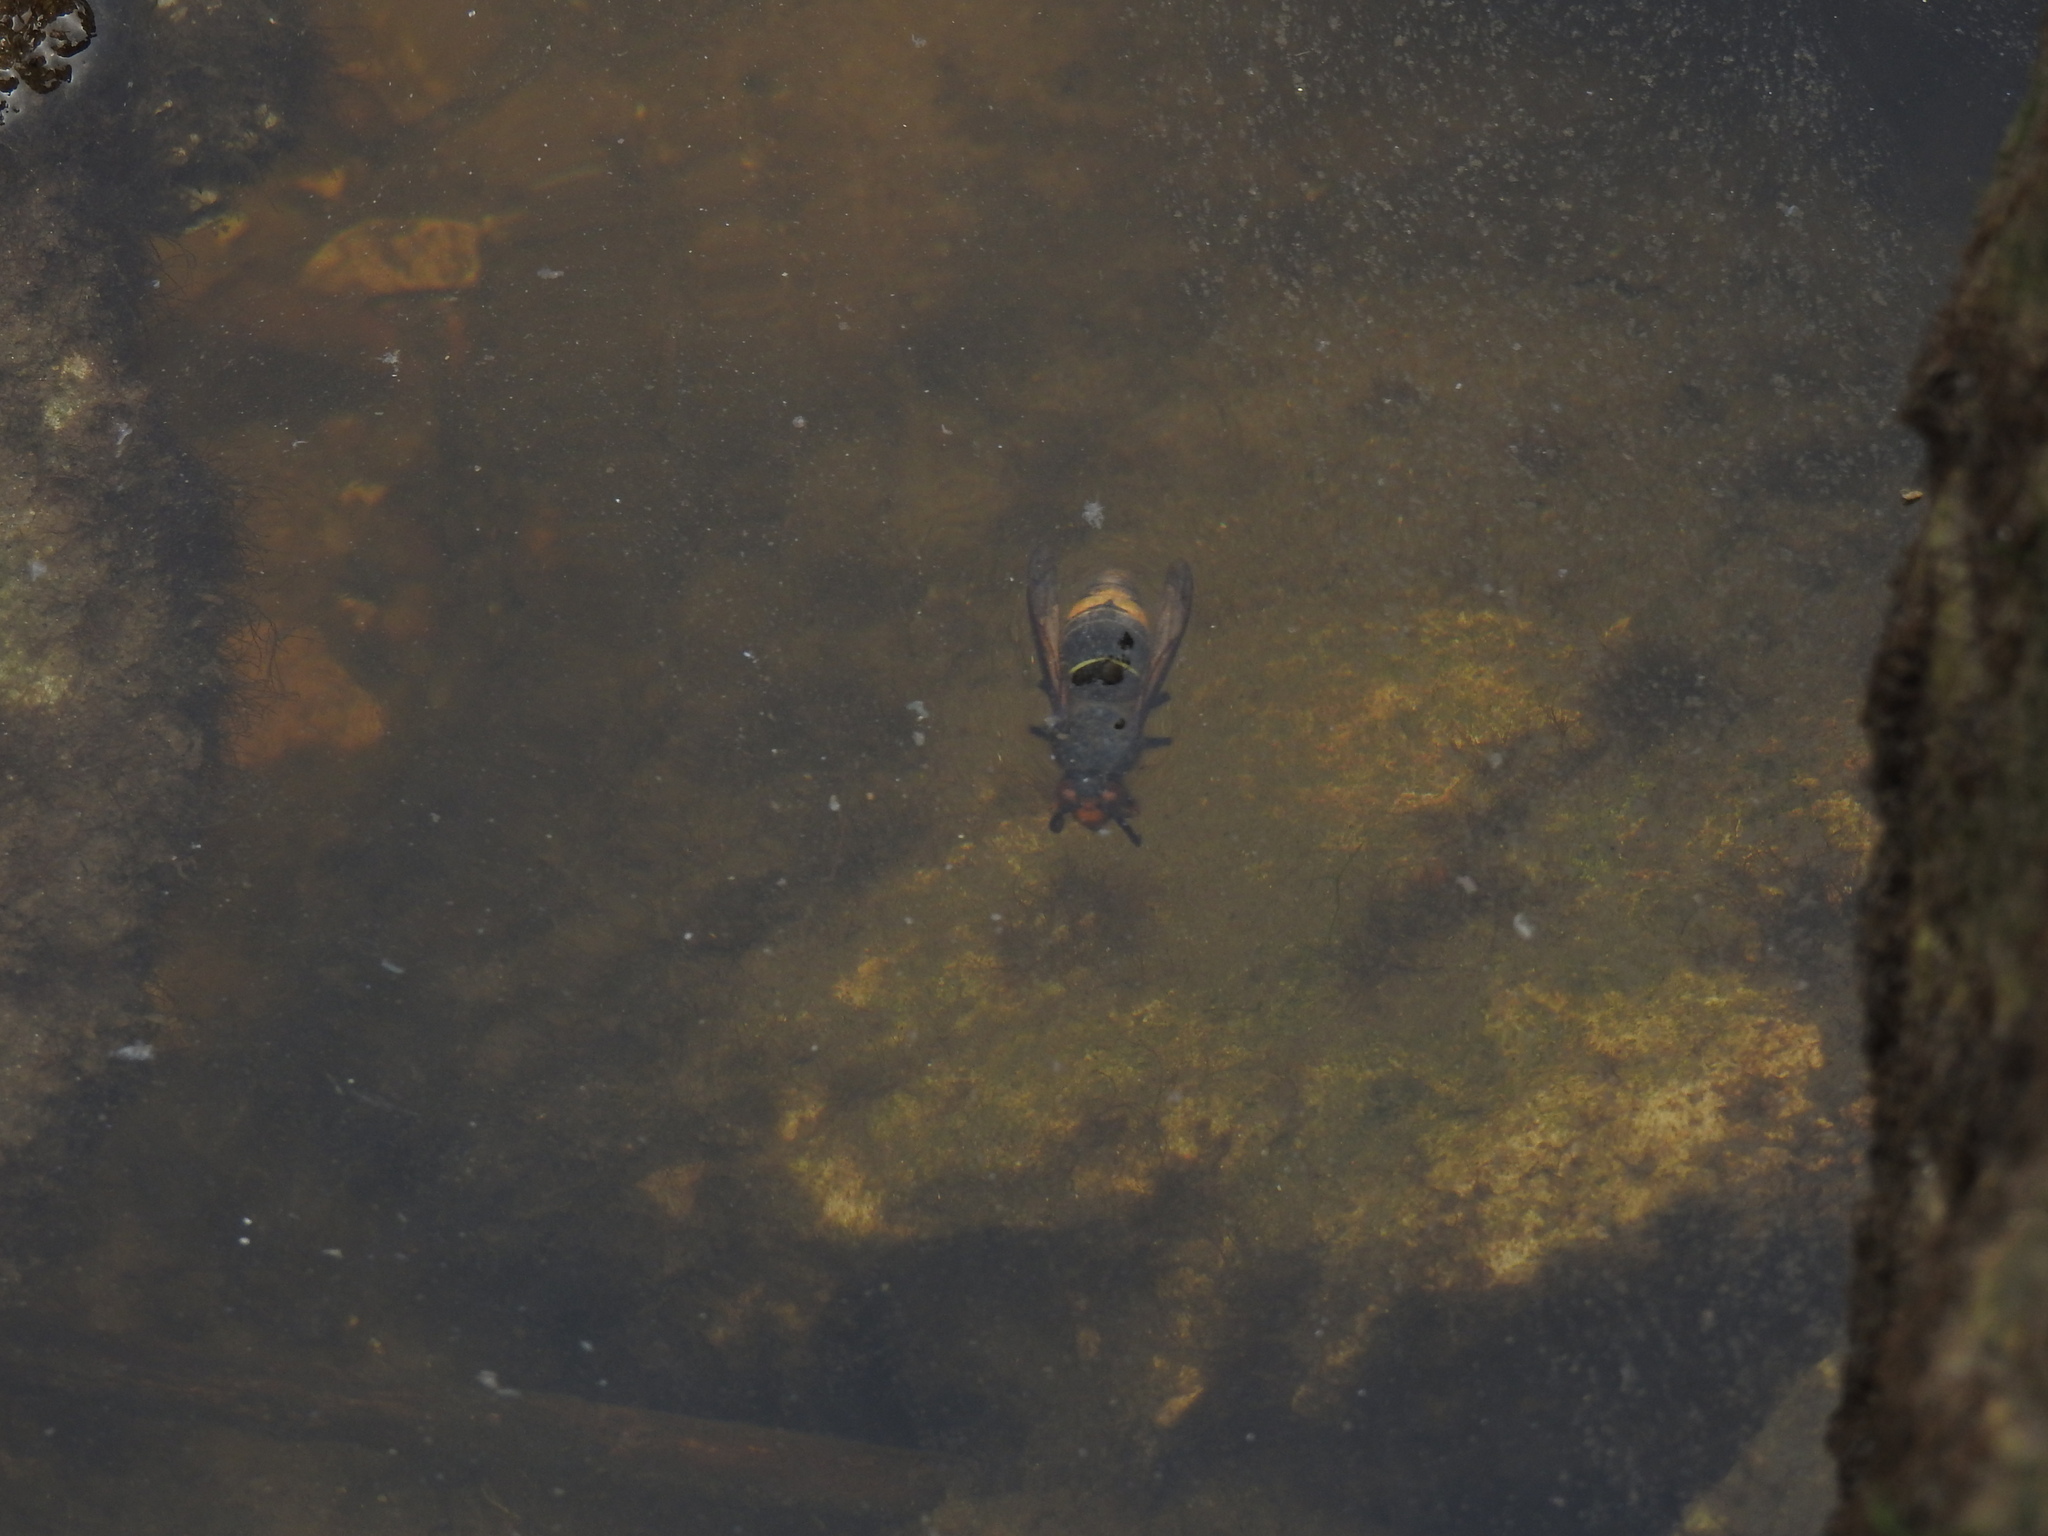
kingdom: Animalia
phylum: Arthropoda
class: Insecta
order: Hymenoptera
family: Vespidae
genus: Vespa
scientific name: Vespa velutina
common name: Asian hornet
